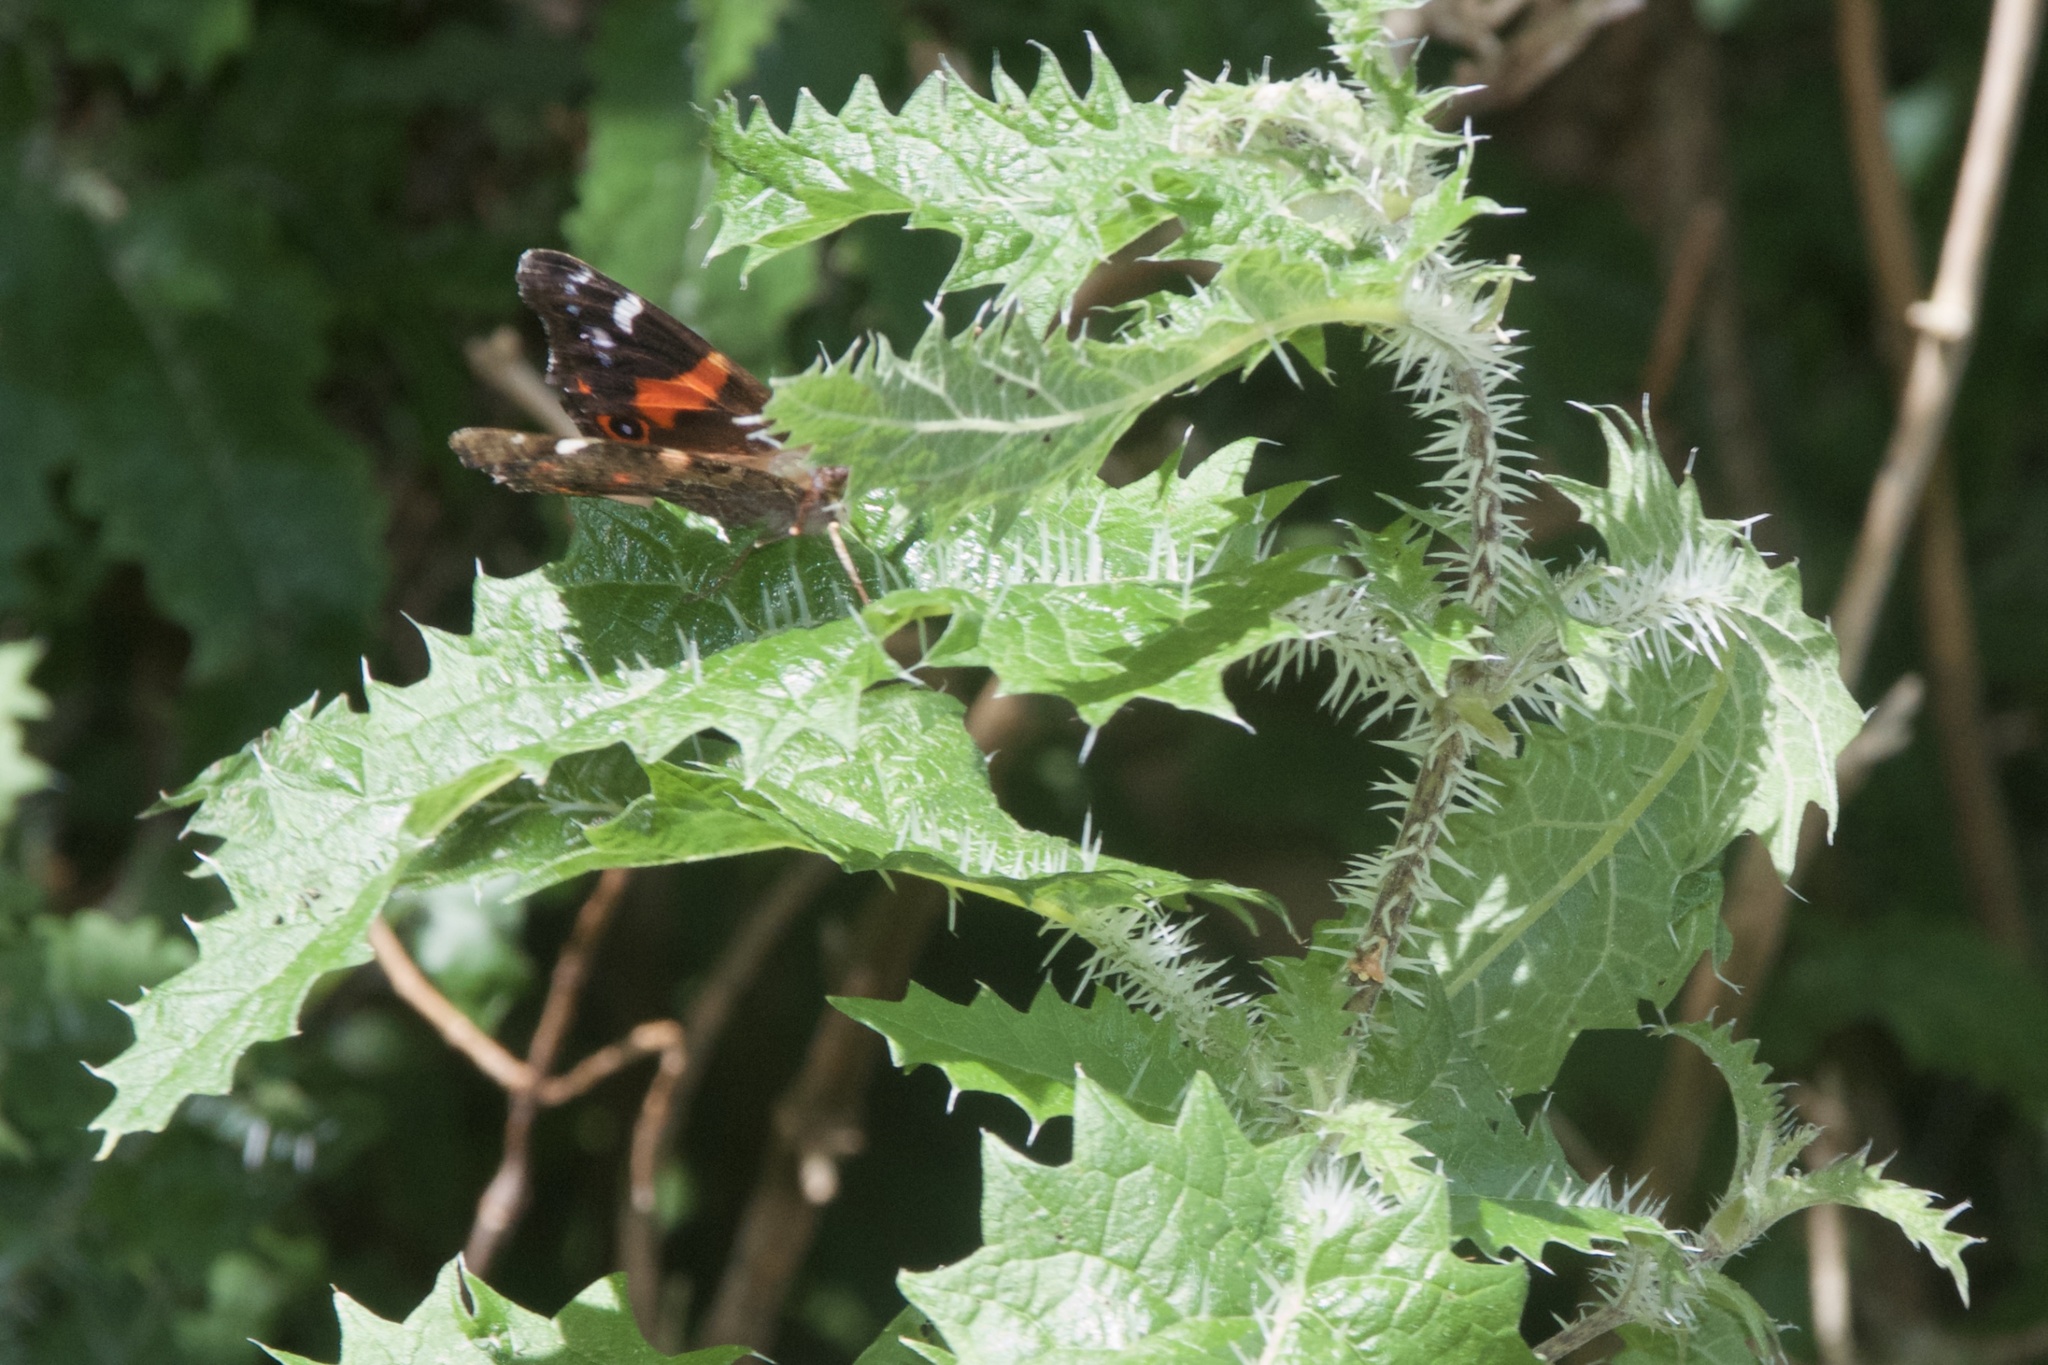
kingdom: Animalia
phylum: Arthropoda
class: Insecta
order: Lepidoptera
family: Nymphalidae
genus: Vanessa
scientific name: Vanessa gonerilla
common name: New zealand red admiral
